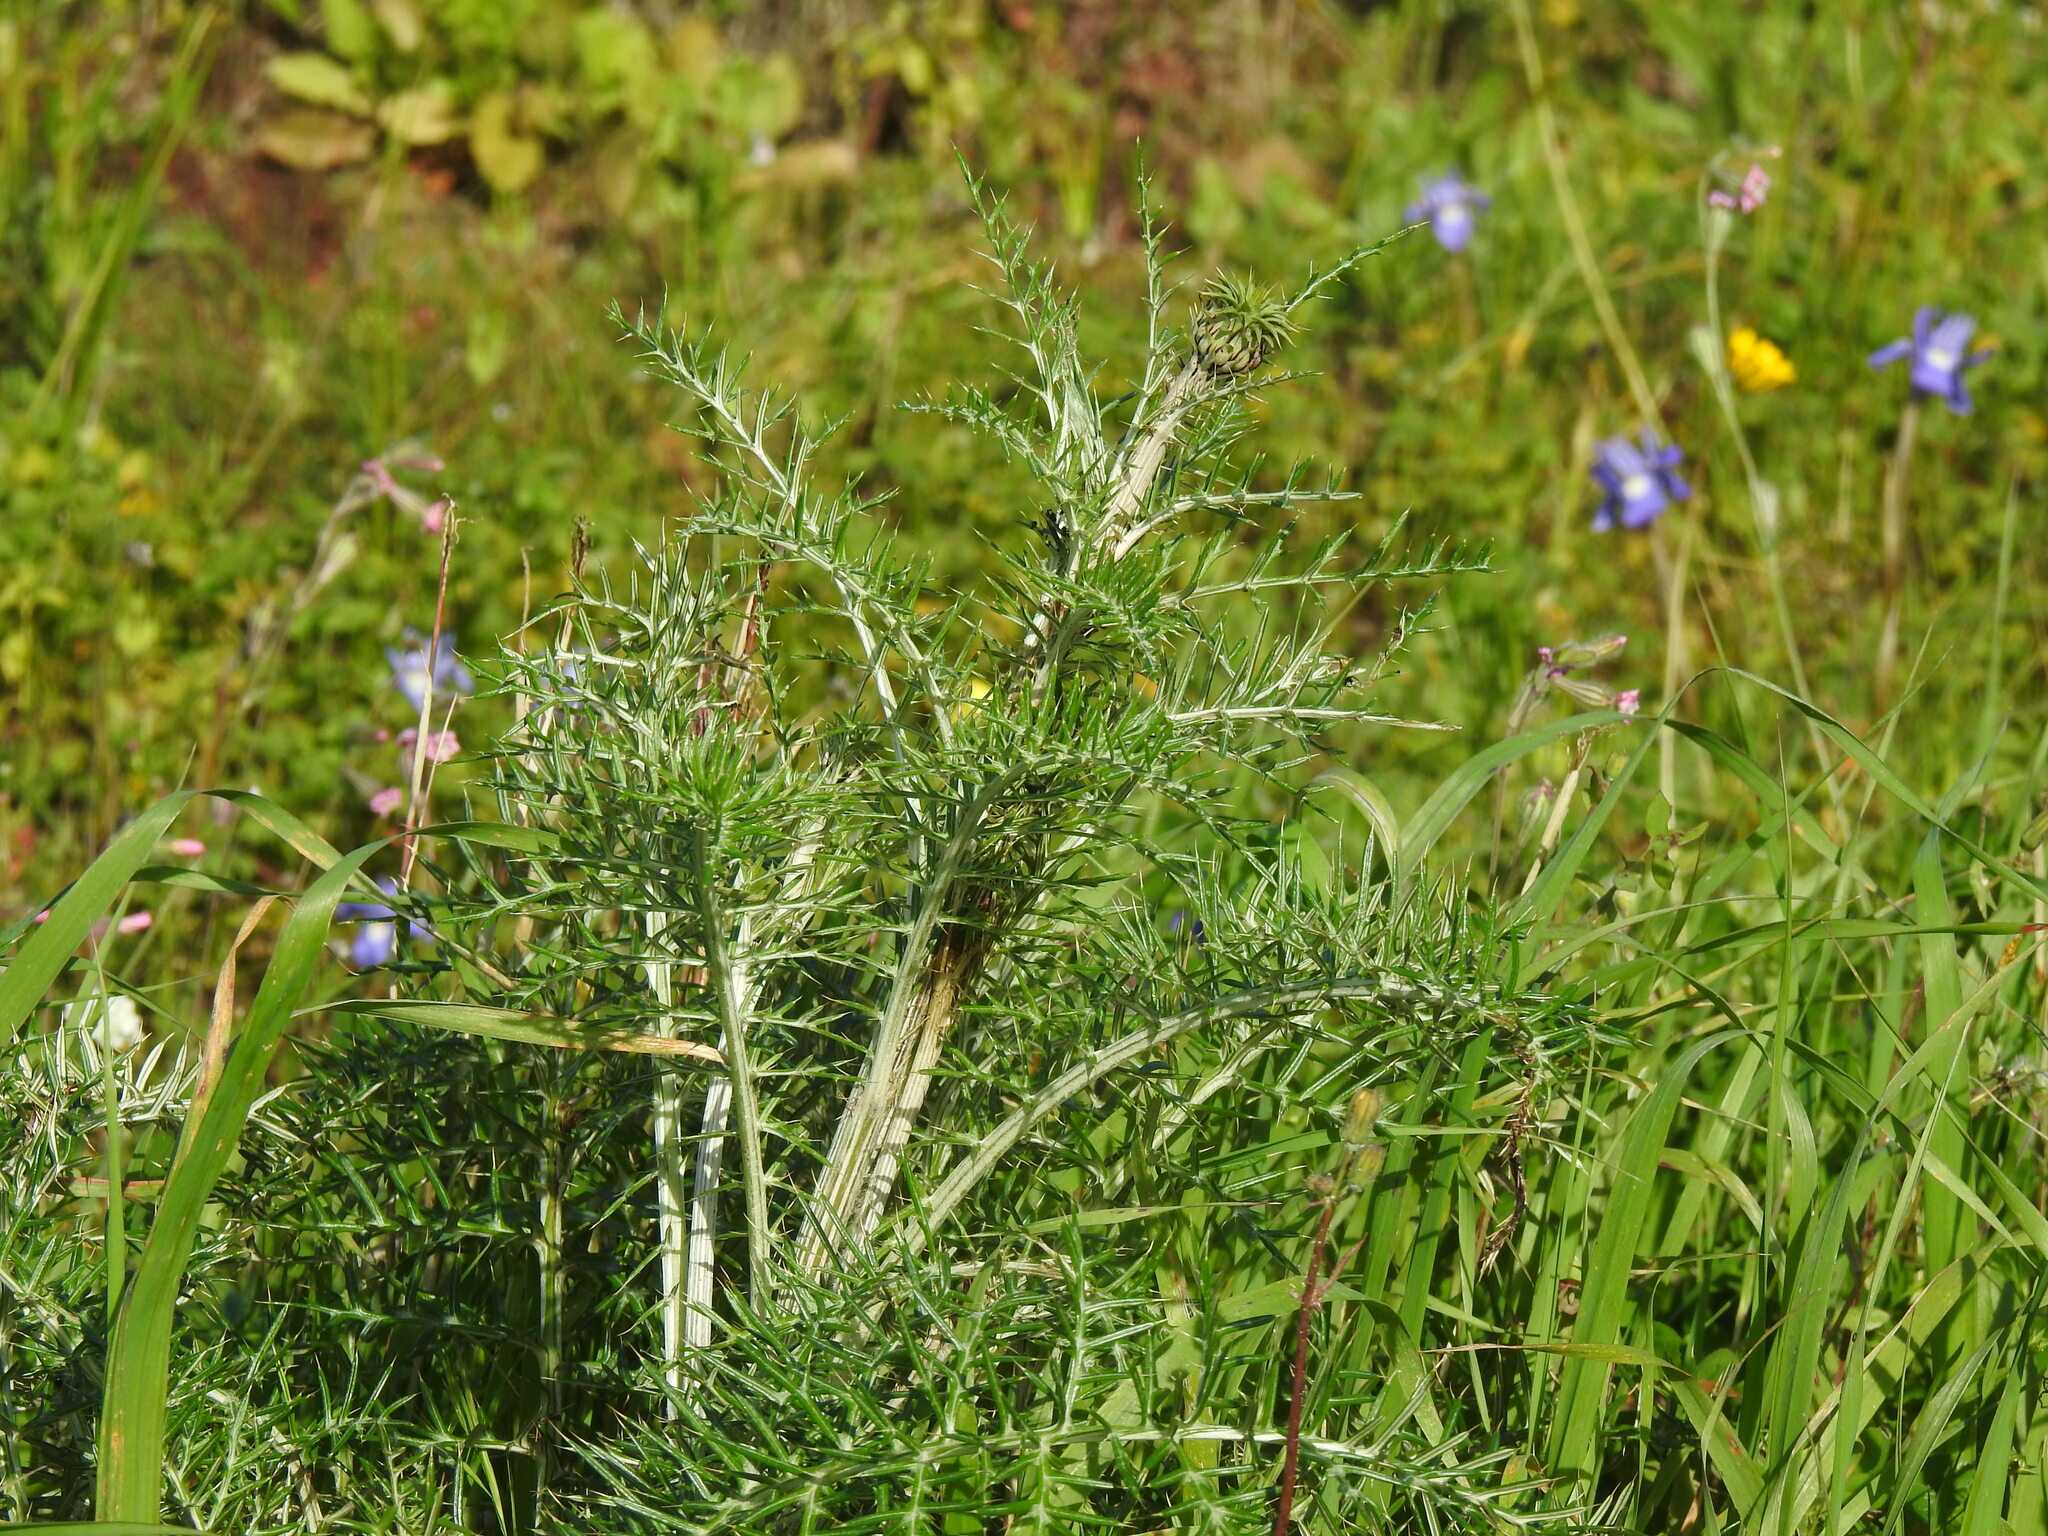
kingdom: Plantae
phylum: Tracheophyta
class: Magnoliopsida
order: Asterales
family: Asteraceae
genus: Cynara
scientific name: Cynara humilis
